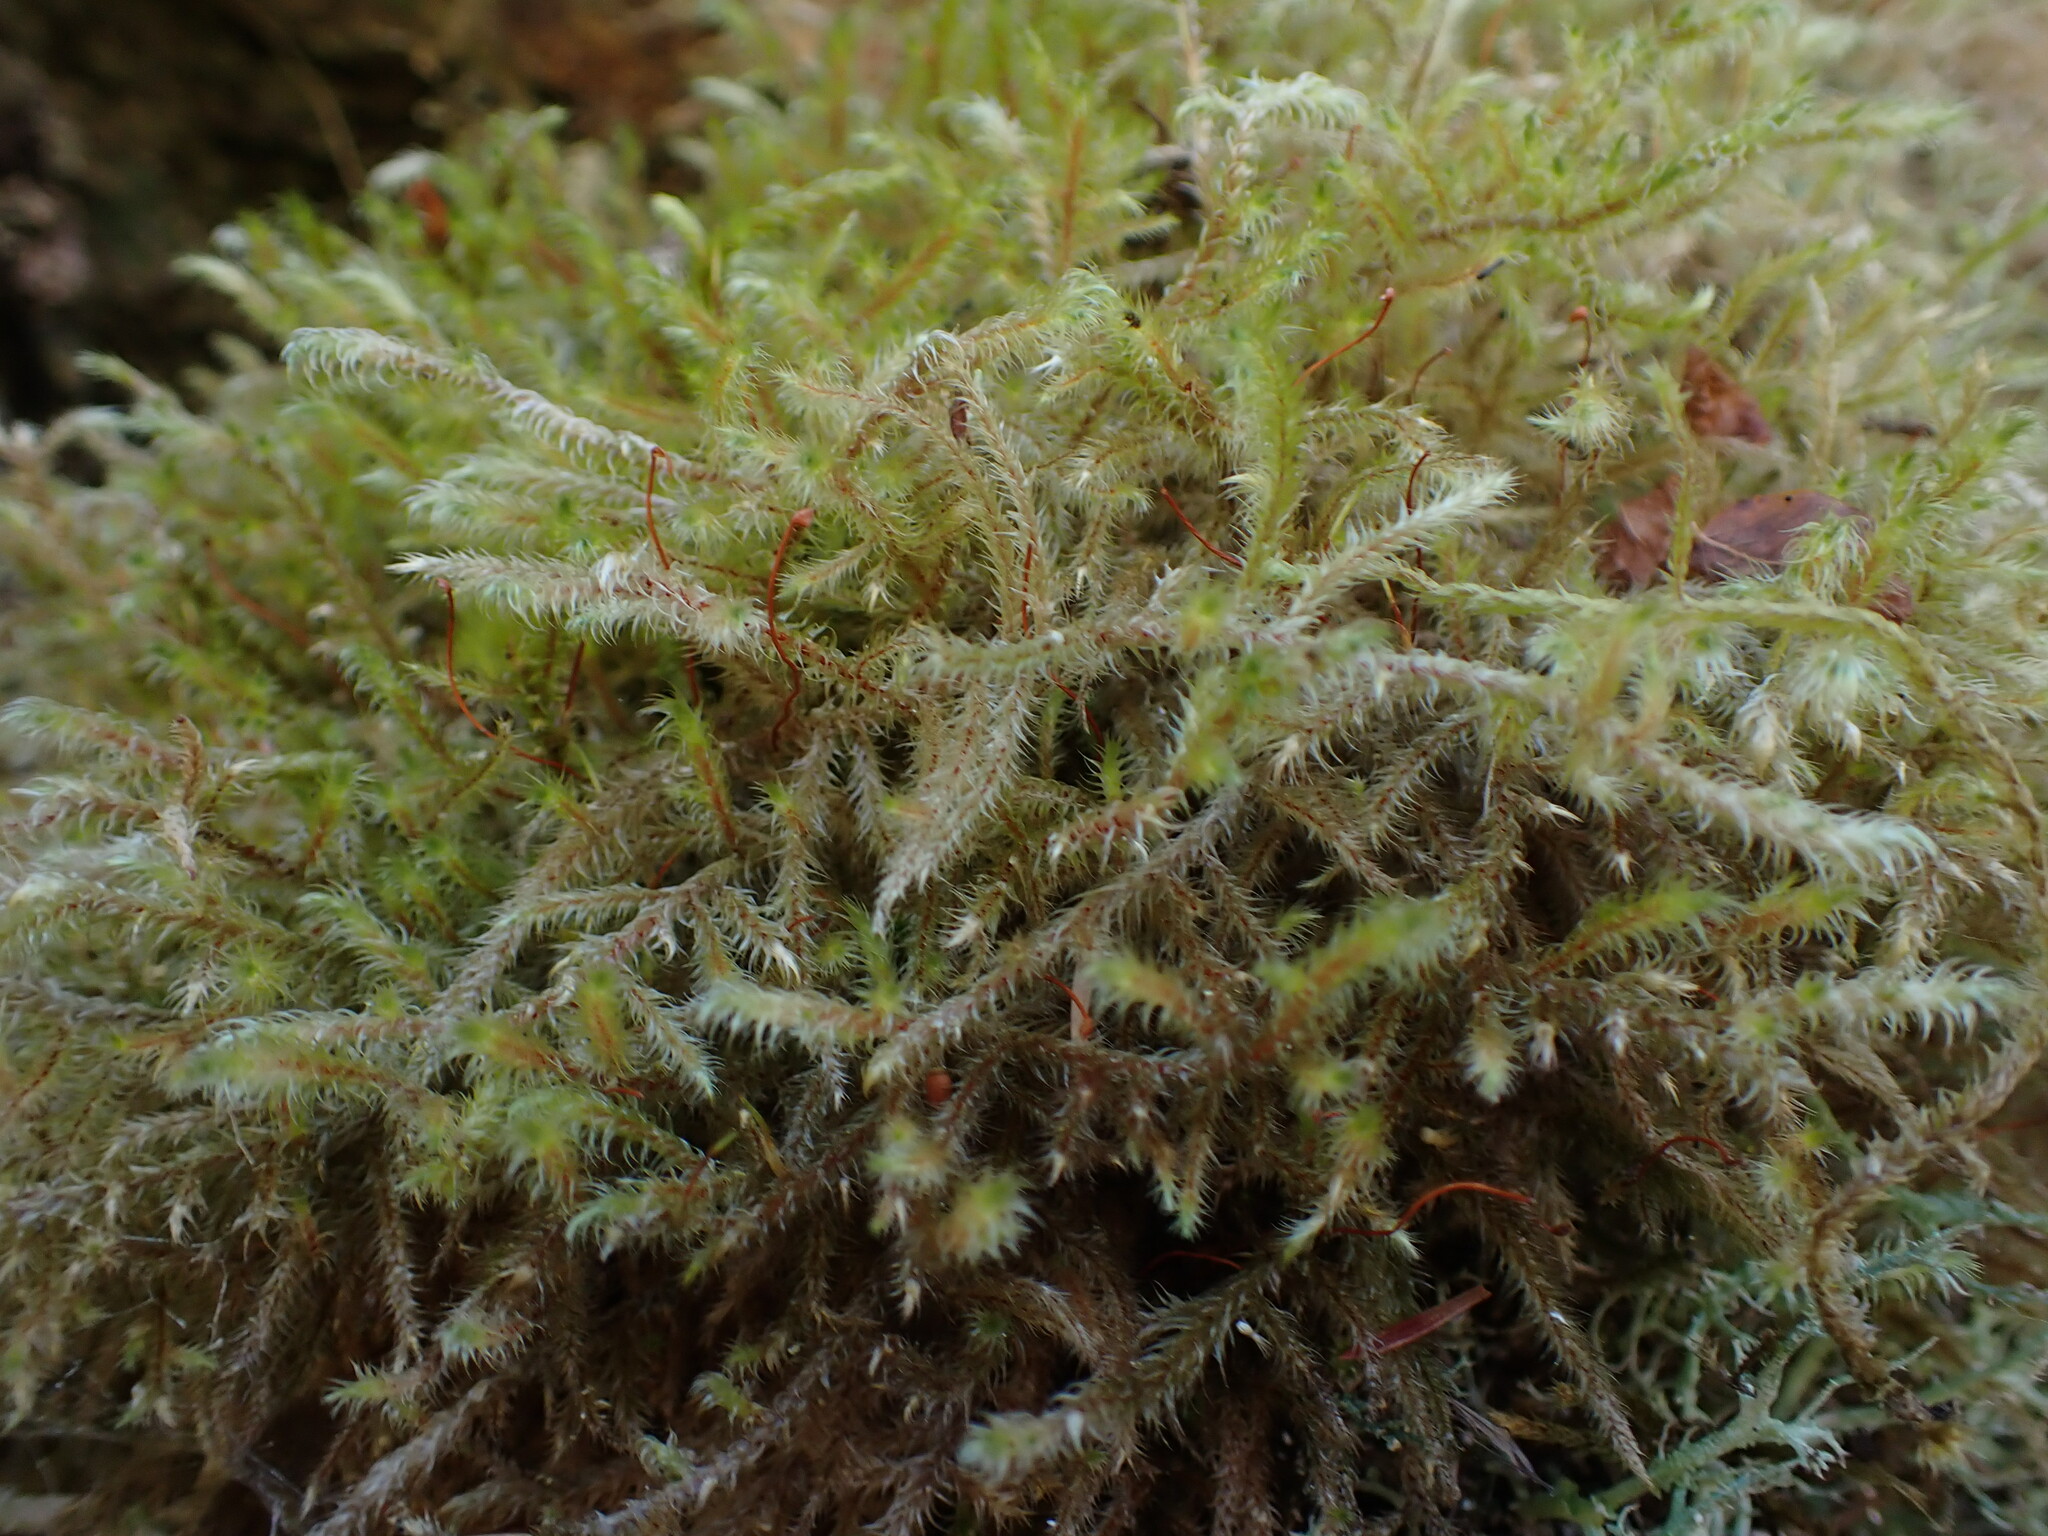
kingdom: Plantae
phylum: Bryophyta
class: Bryopsida
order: Hypnales
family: Hylocomiaceae
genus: Rhytidiadelphus
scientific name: Rhytidiadelphus loreus
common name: Lanky moss
